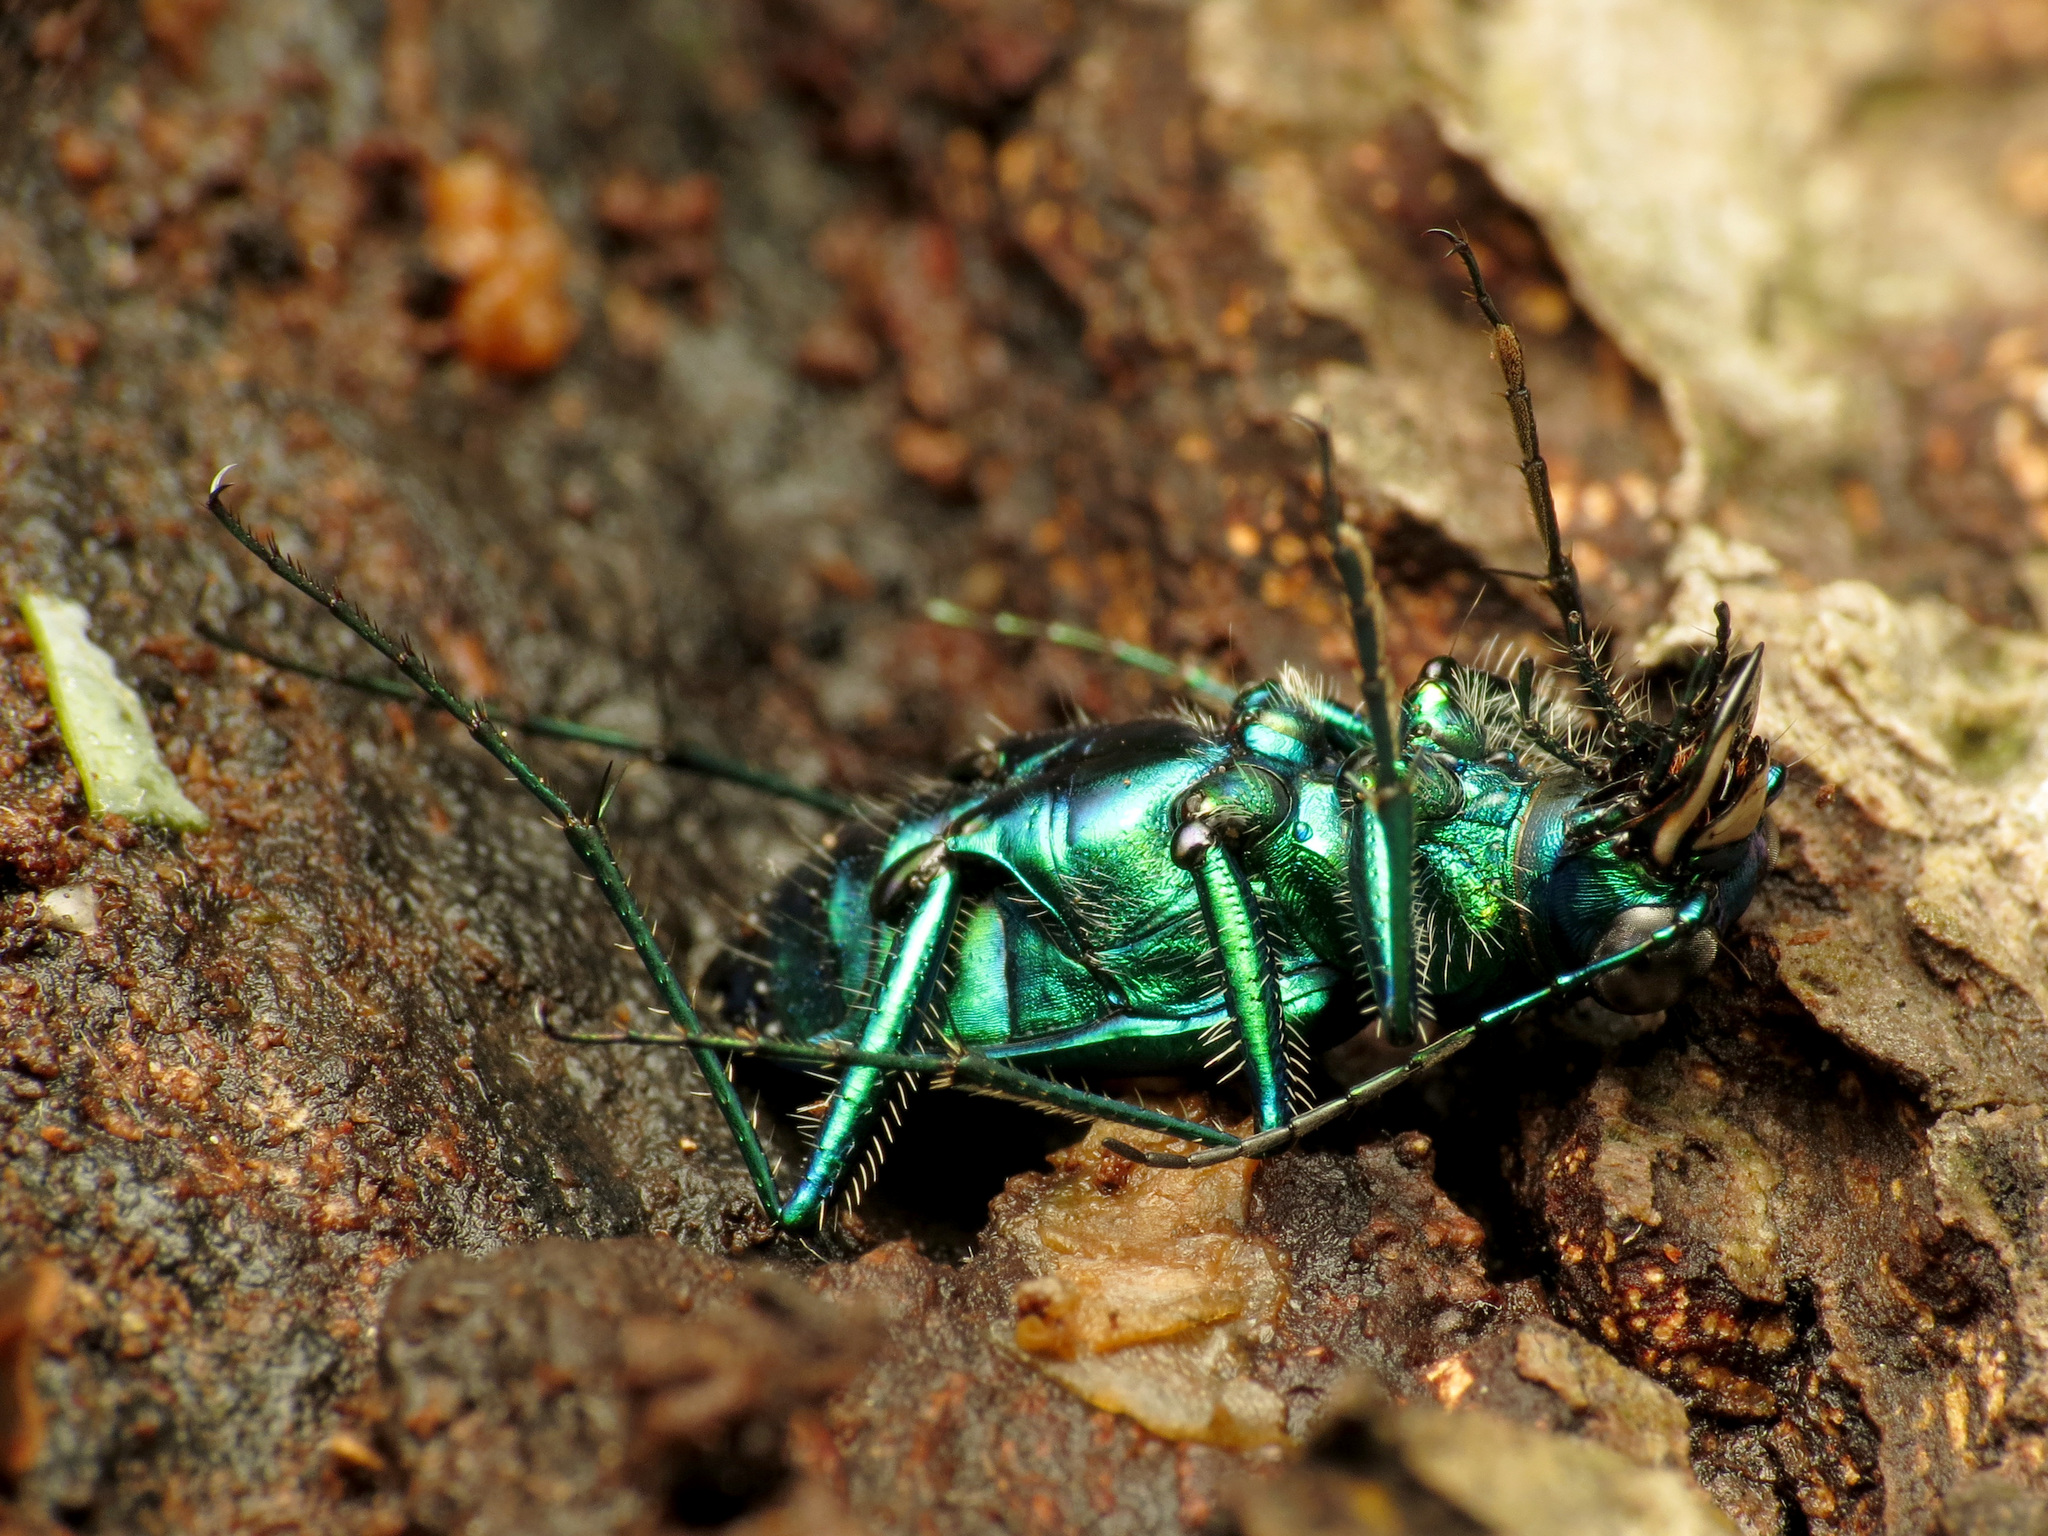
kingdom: Animalia
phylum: Arthropoda
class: Insecta
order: Coleoptera
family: Carabidae
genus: Cicindela
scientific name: Cicindela sexguttata
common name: Six-spotted tiger beetle
